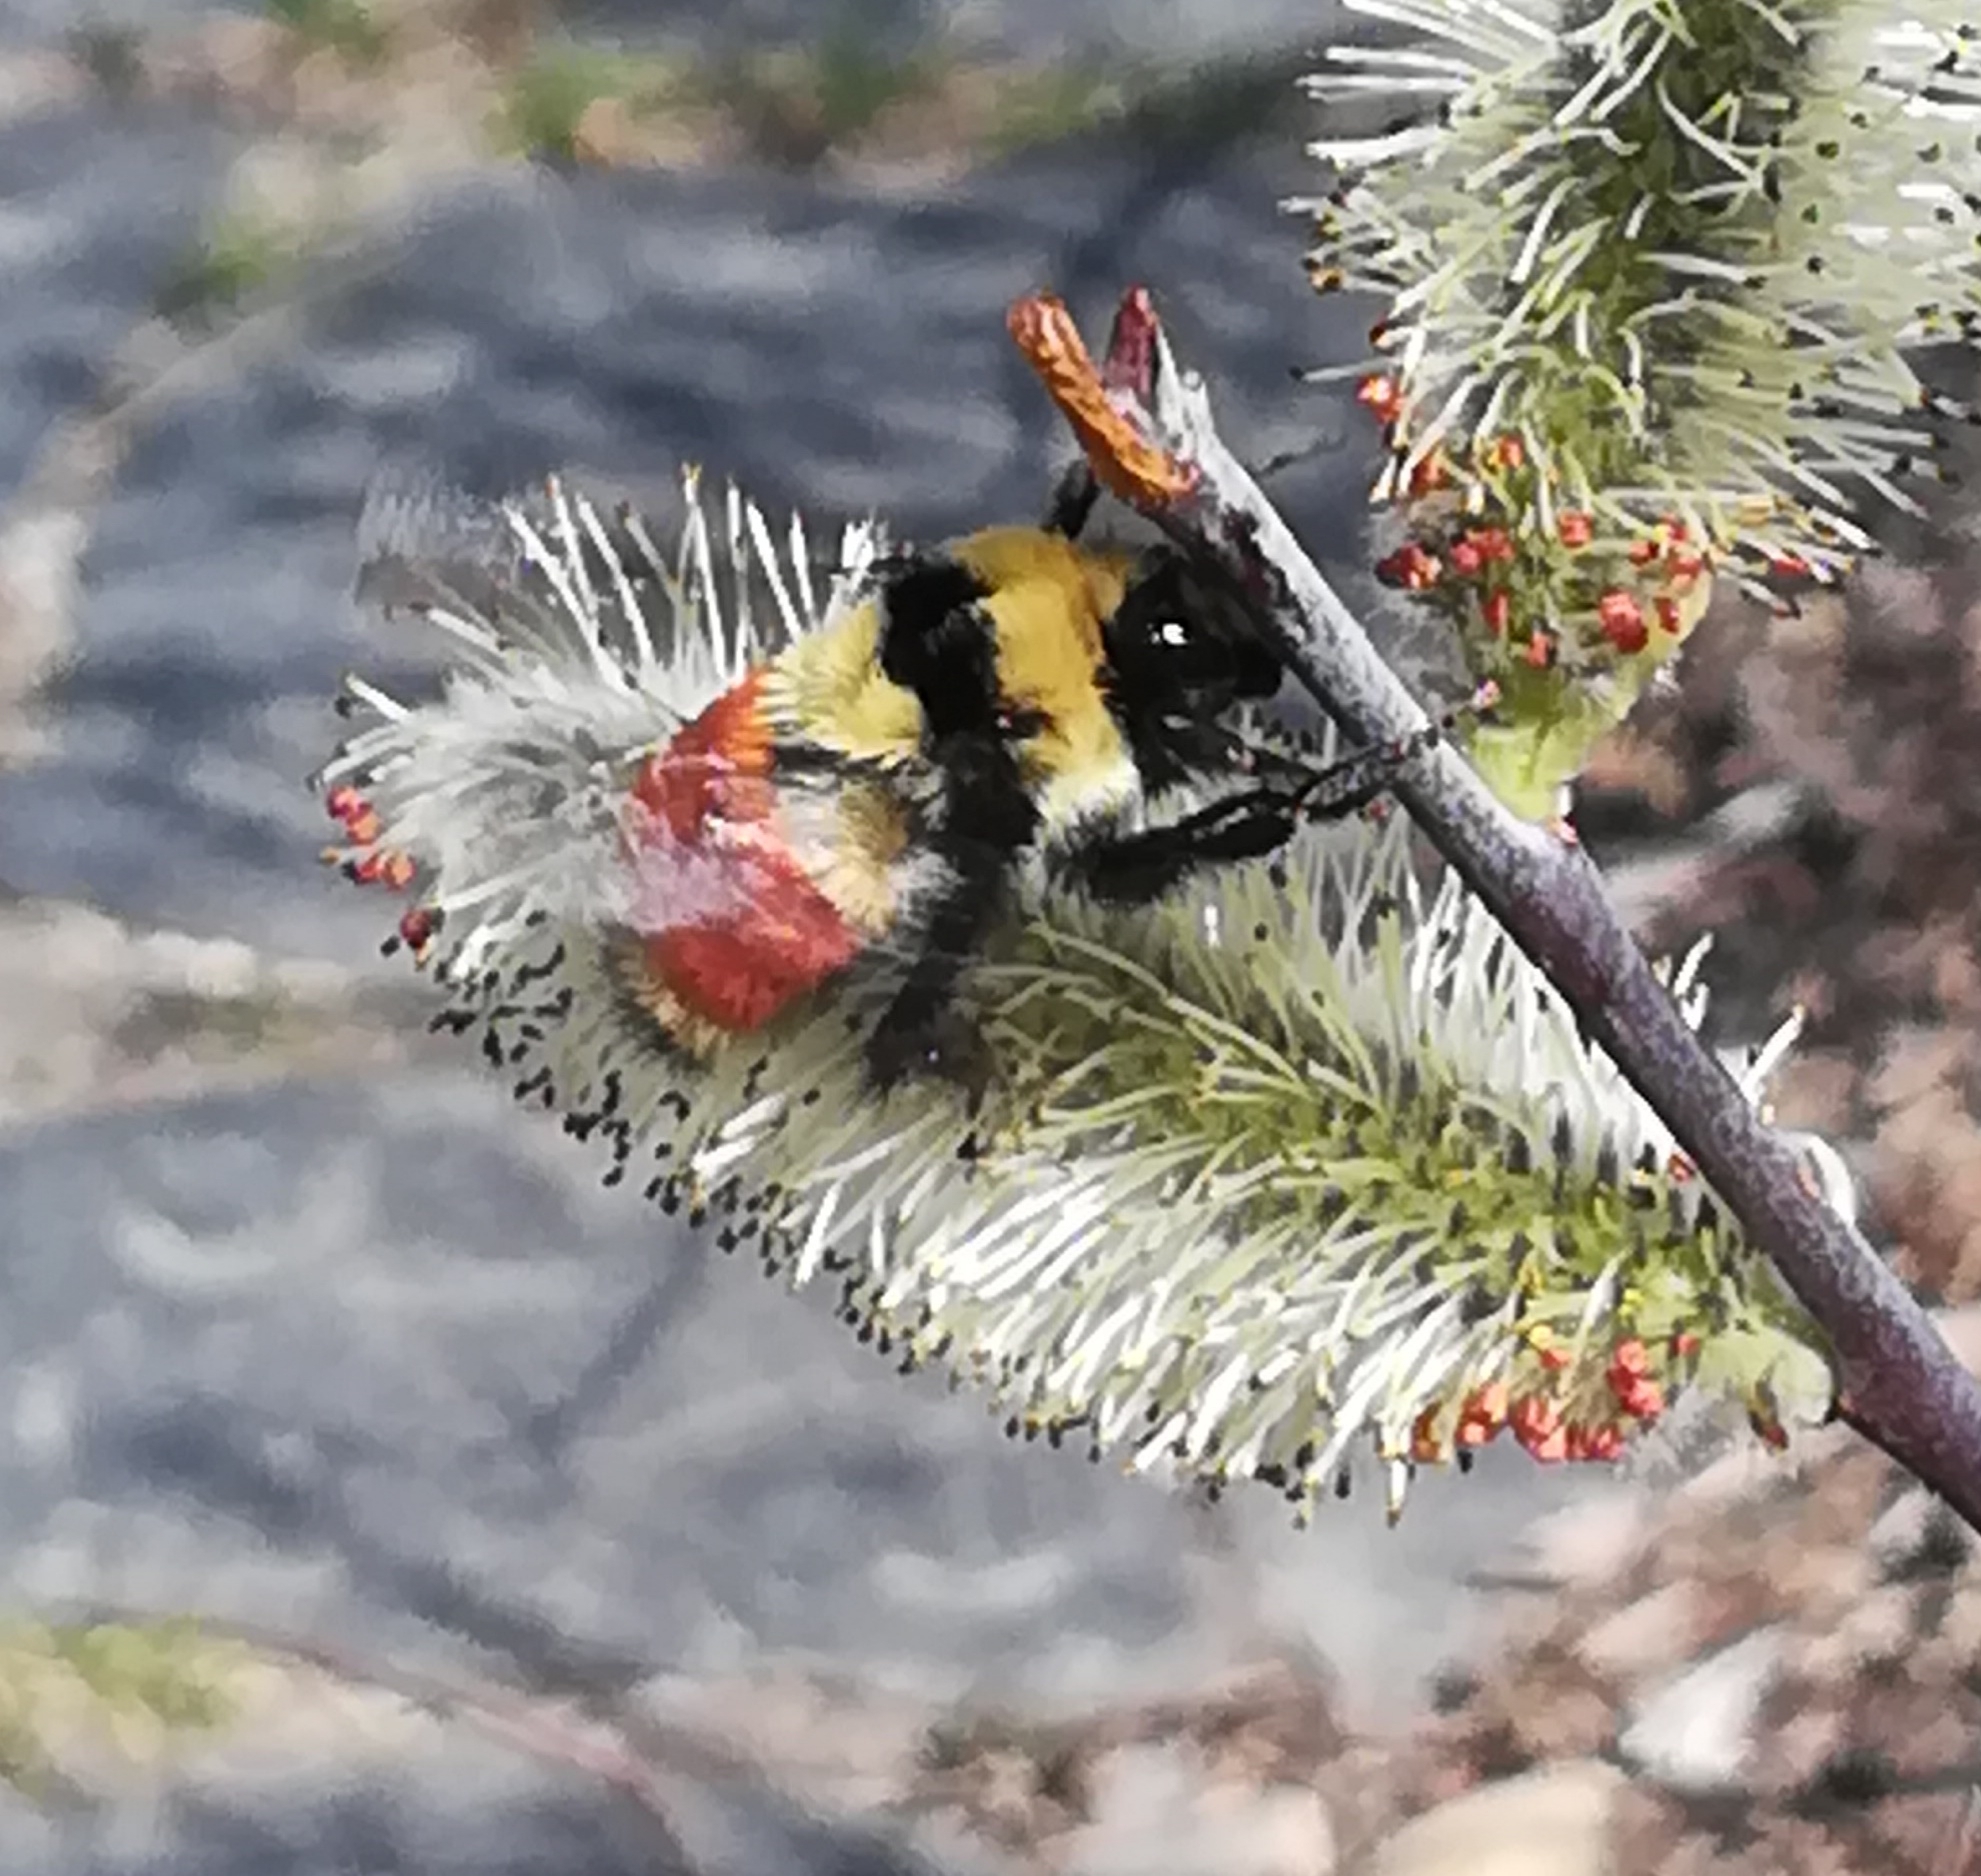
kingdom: Animalia
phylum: Arthropoda
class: Insecta
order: Hymenoptera
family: Apidae
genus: Bombus
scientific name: Bombus huntii
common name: Hunt bumble bee
